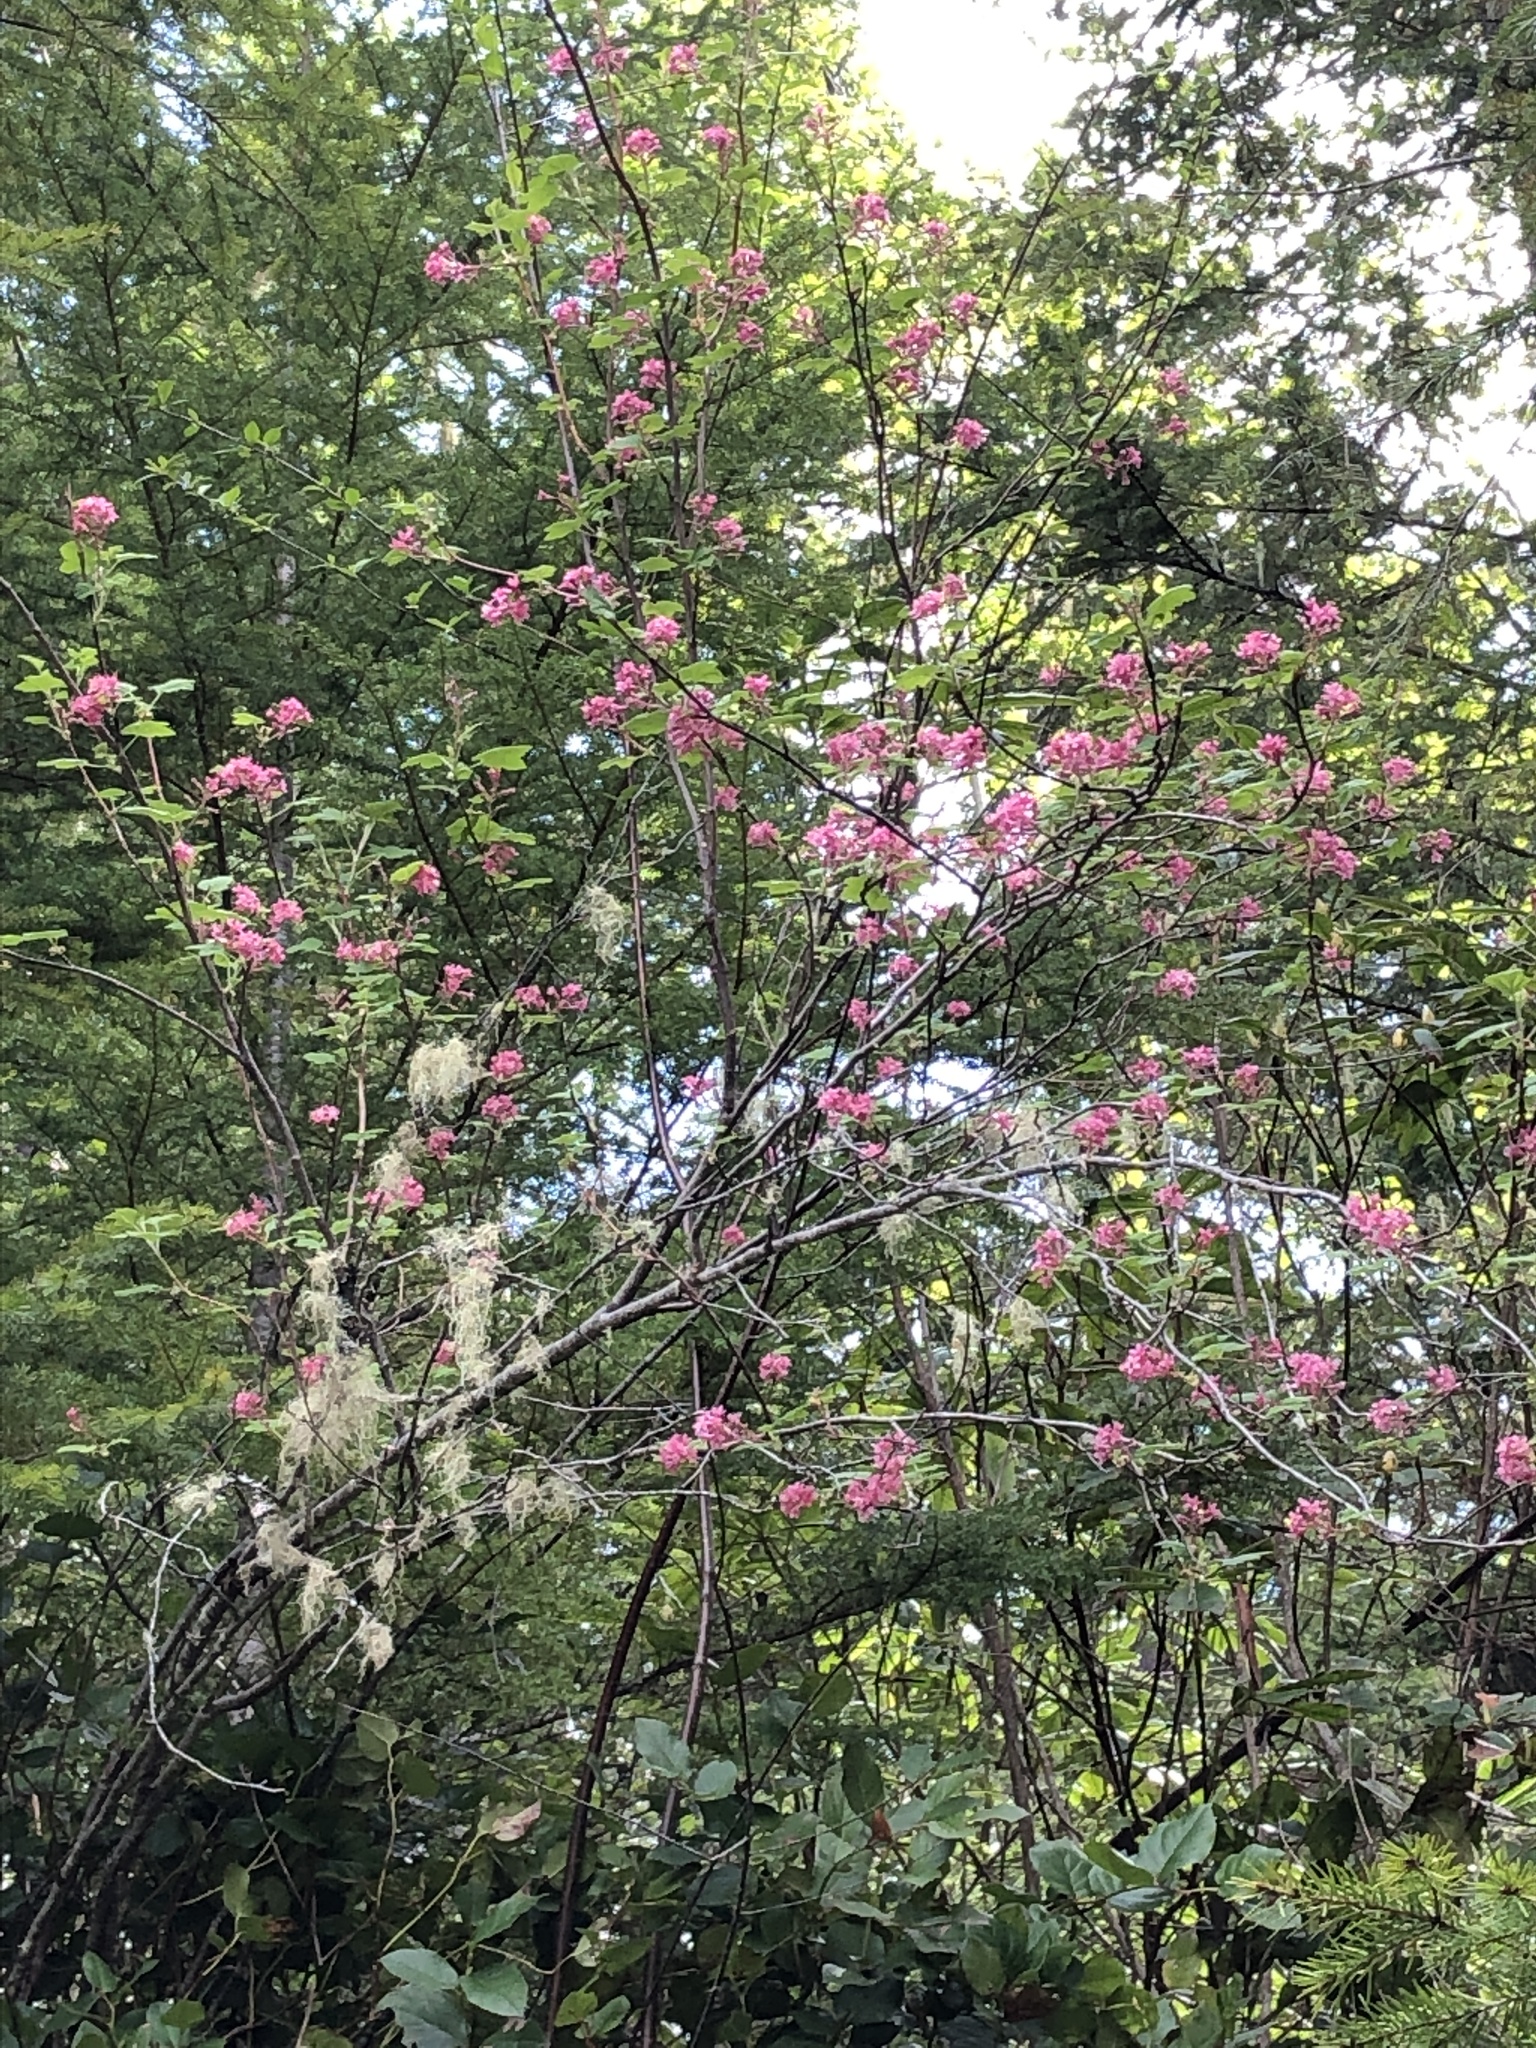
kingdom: Plantae
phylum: Tracheophyta
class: Magnoliopsida
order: Saxifragales
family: Grossulariaceae
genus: Ribes
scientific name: Ribes sanguineum
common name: Flowering currant
